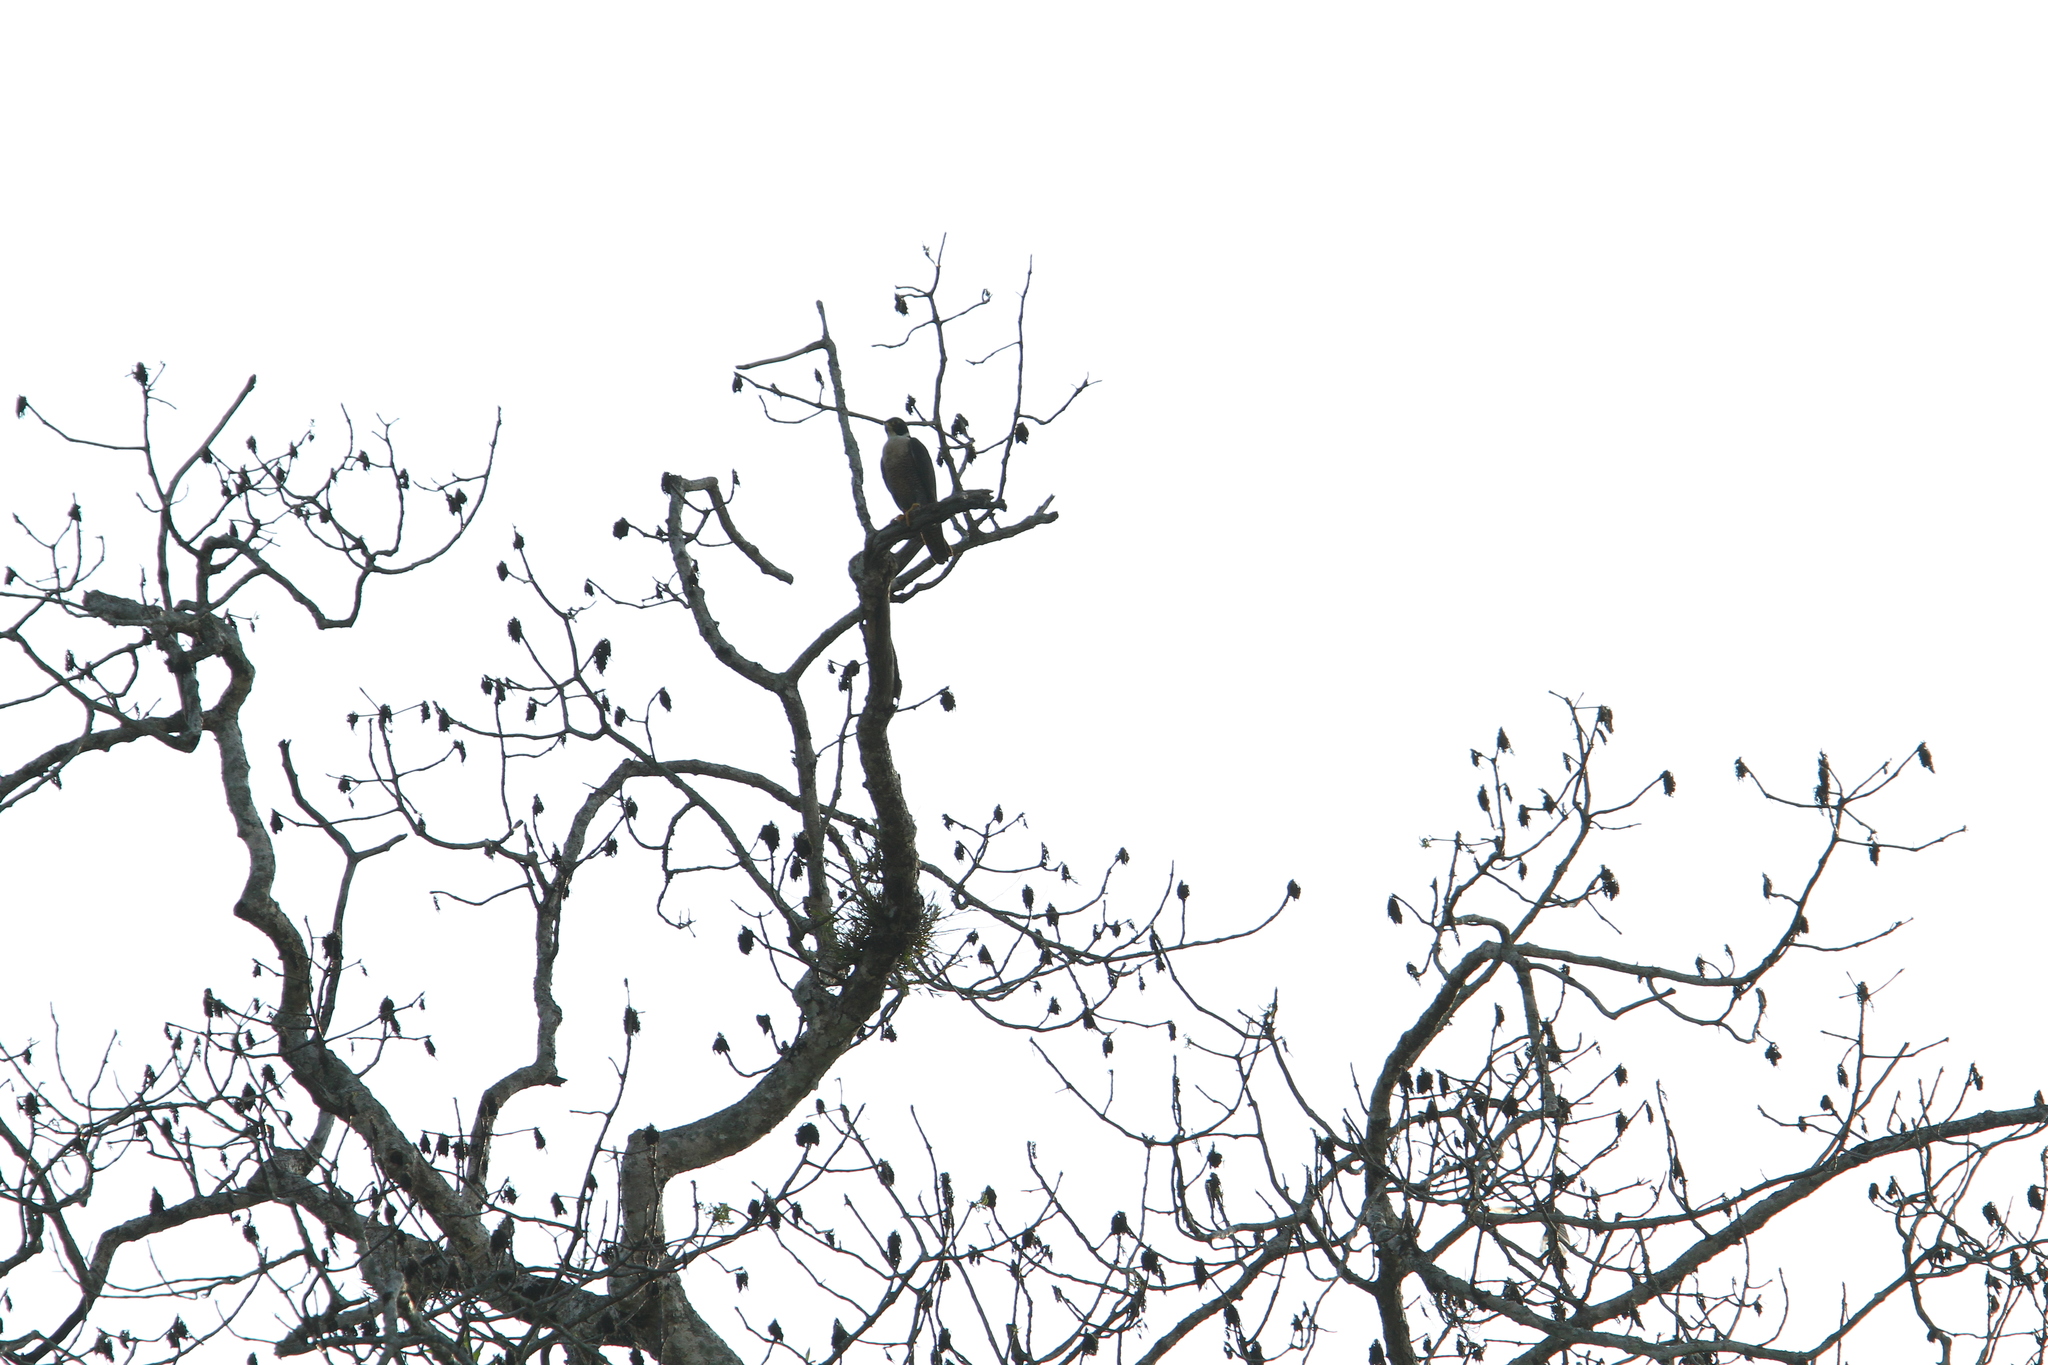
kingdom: Animalia
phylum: Chordata
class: Aves
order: Falconiformes
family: Falconidae
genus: Falco
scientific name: Falco peregrinus
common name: Peregrine falcon
